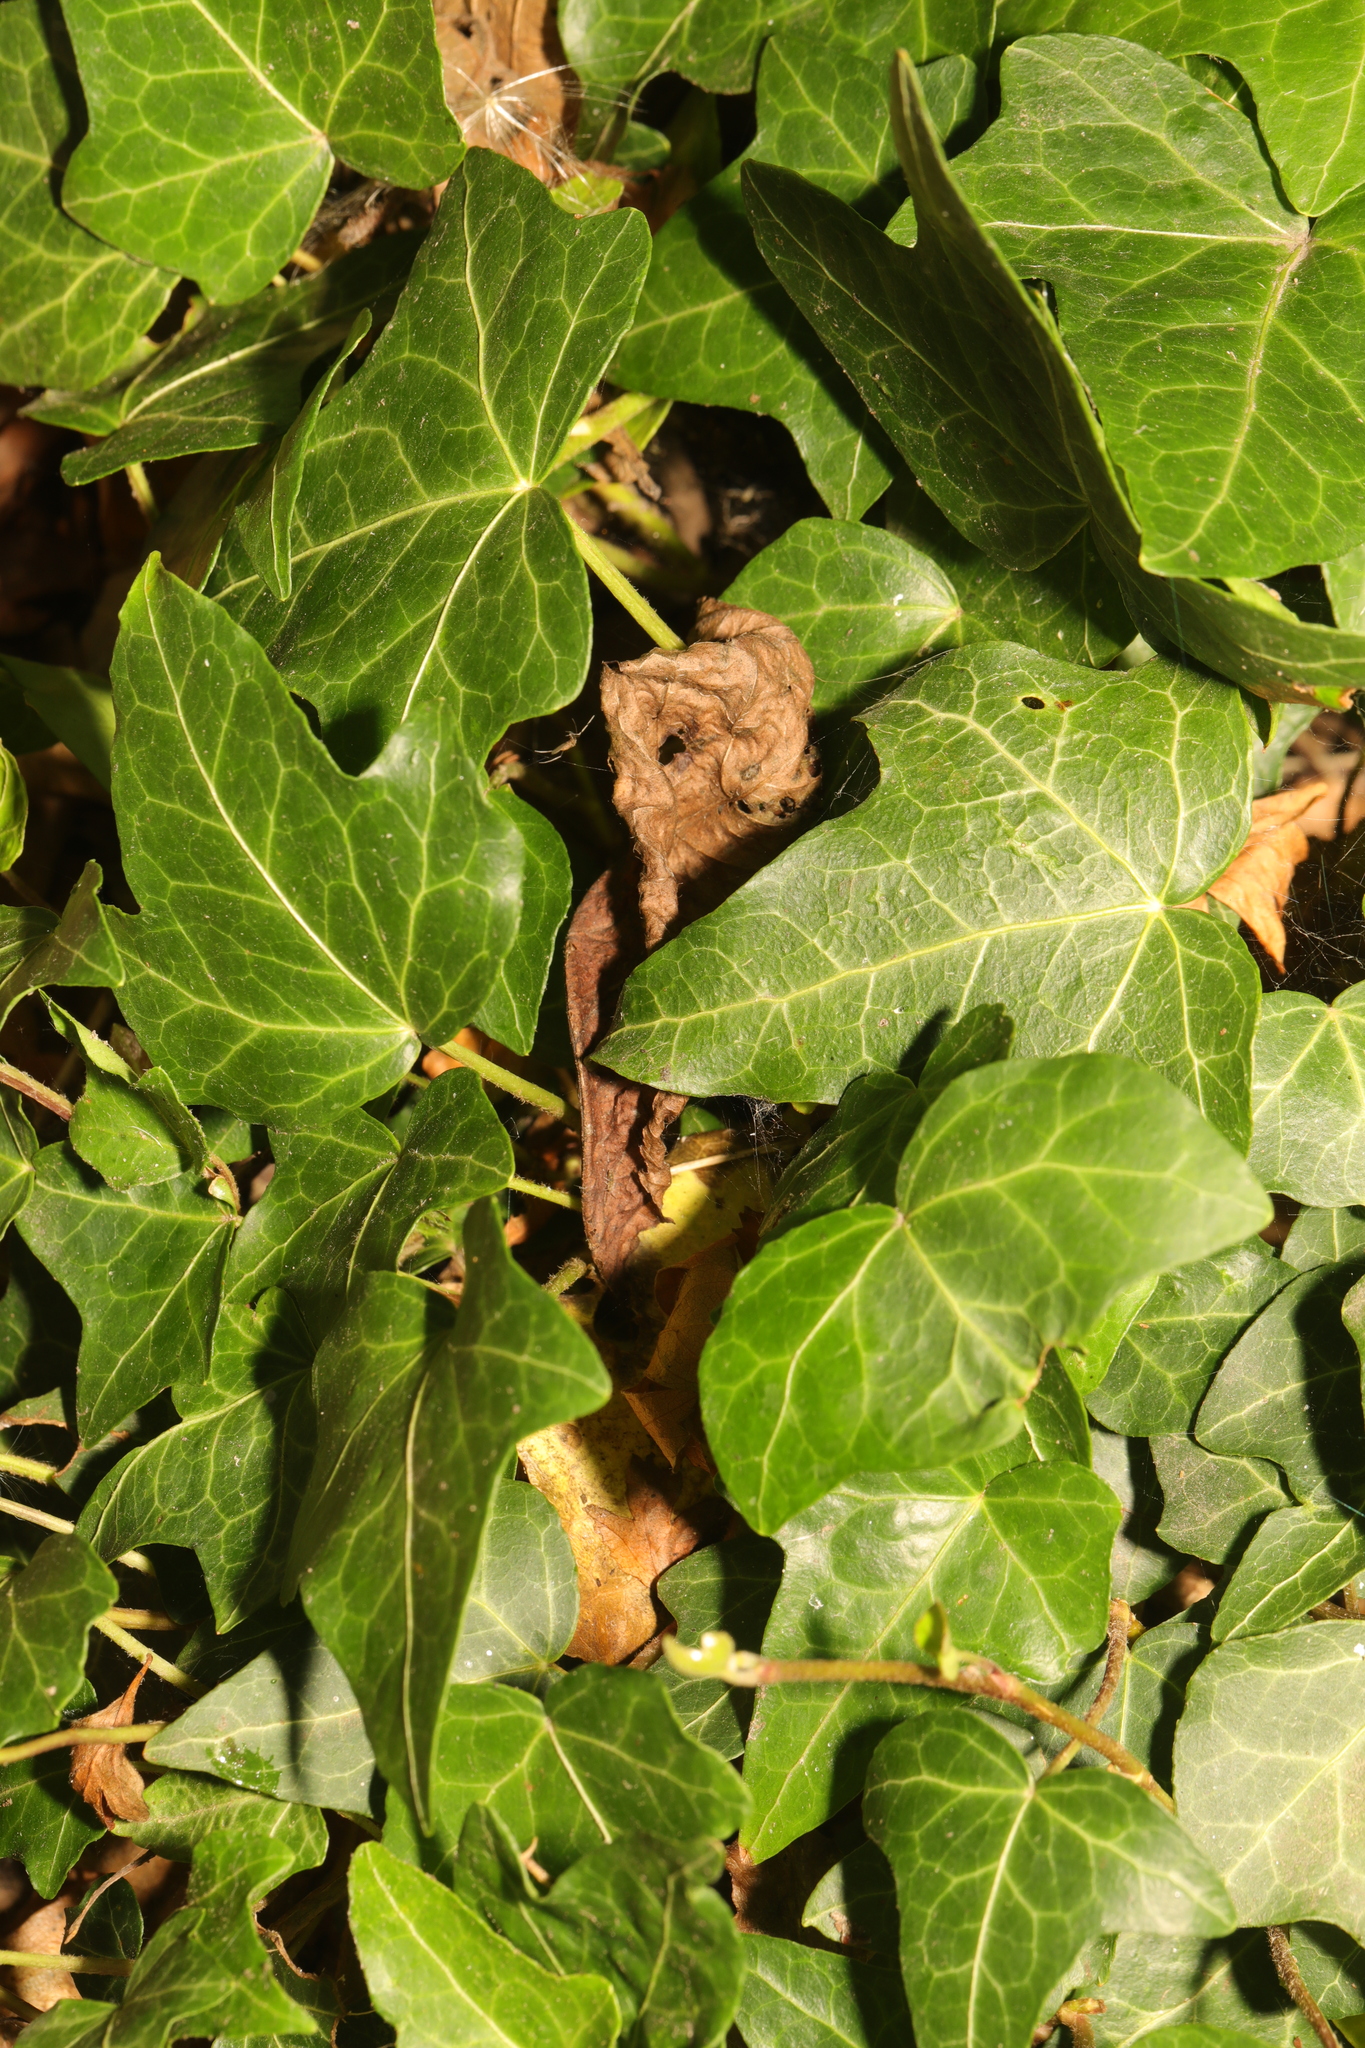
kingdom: Plantae
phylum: Tracheophyta
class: Magnoliopsida
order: Apiales
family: Araliaceae
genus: Hedera
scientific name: Hedera helix
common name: Ivy
